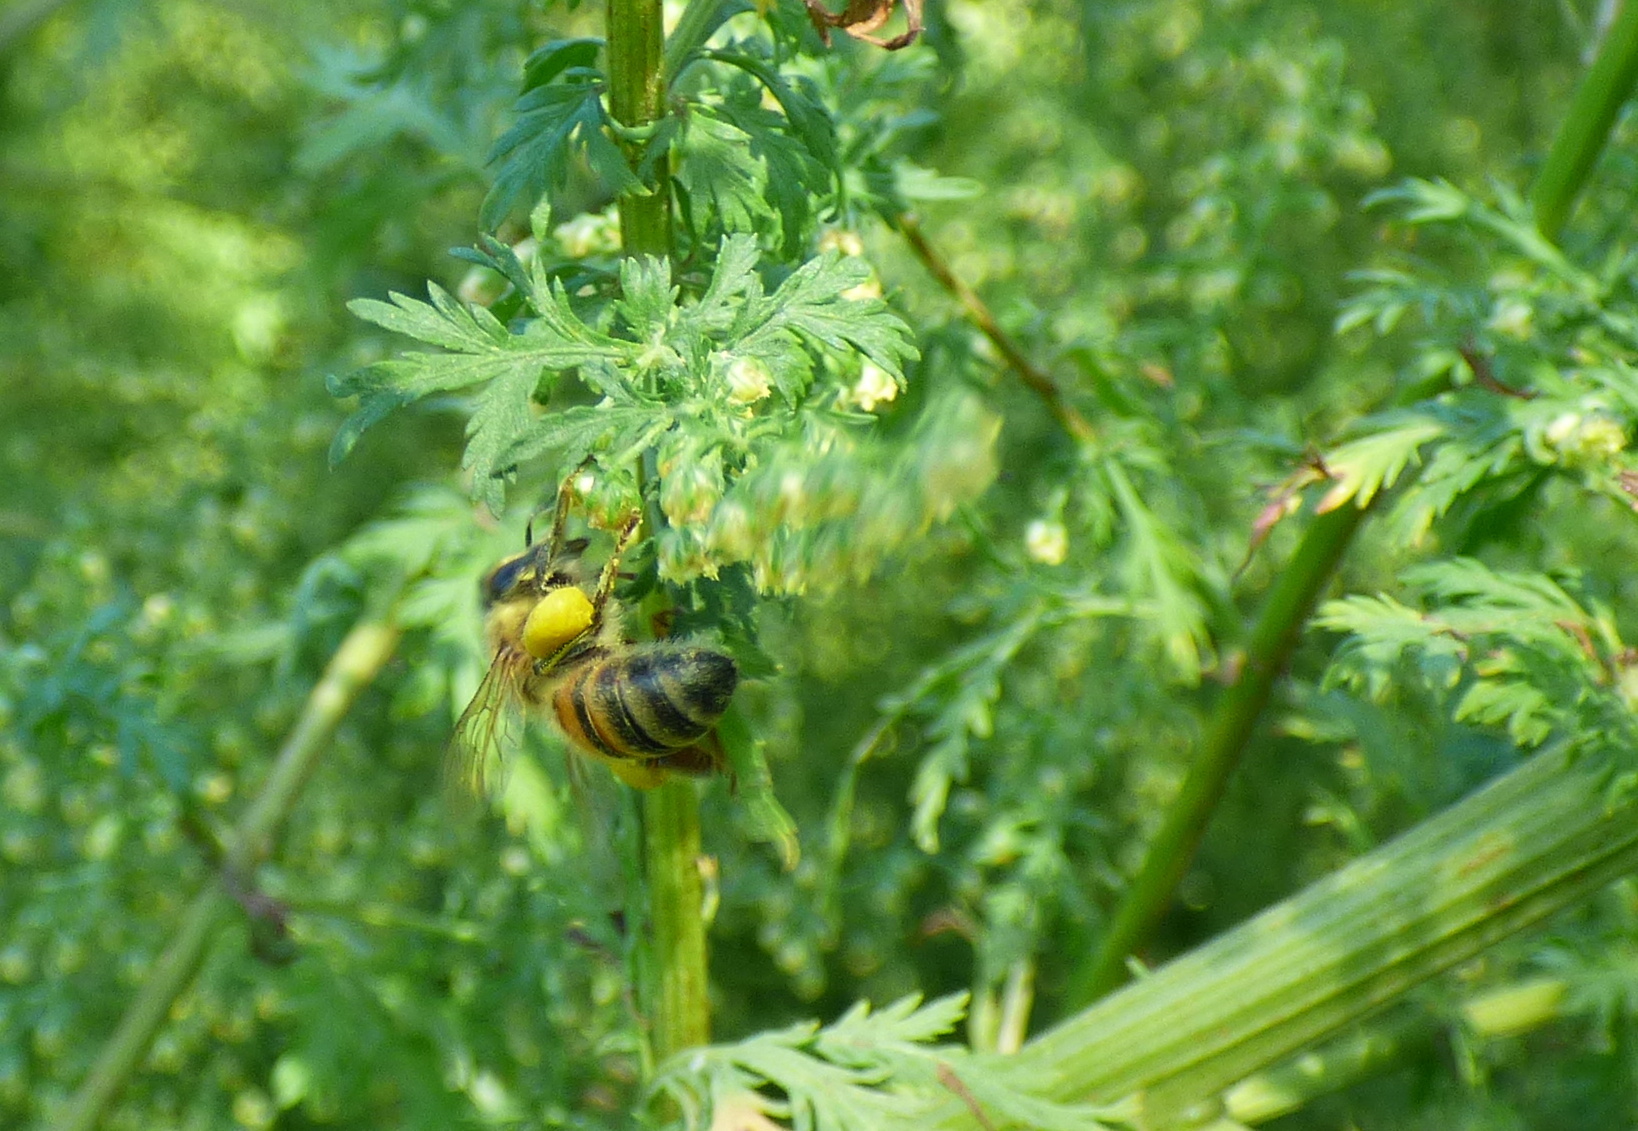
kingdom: Animalia
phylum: Arthropoda
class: Insecta
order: Hymenoptera
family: Apidae
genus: Apis
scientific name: Apis mellifera
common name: Honey bee
